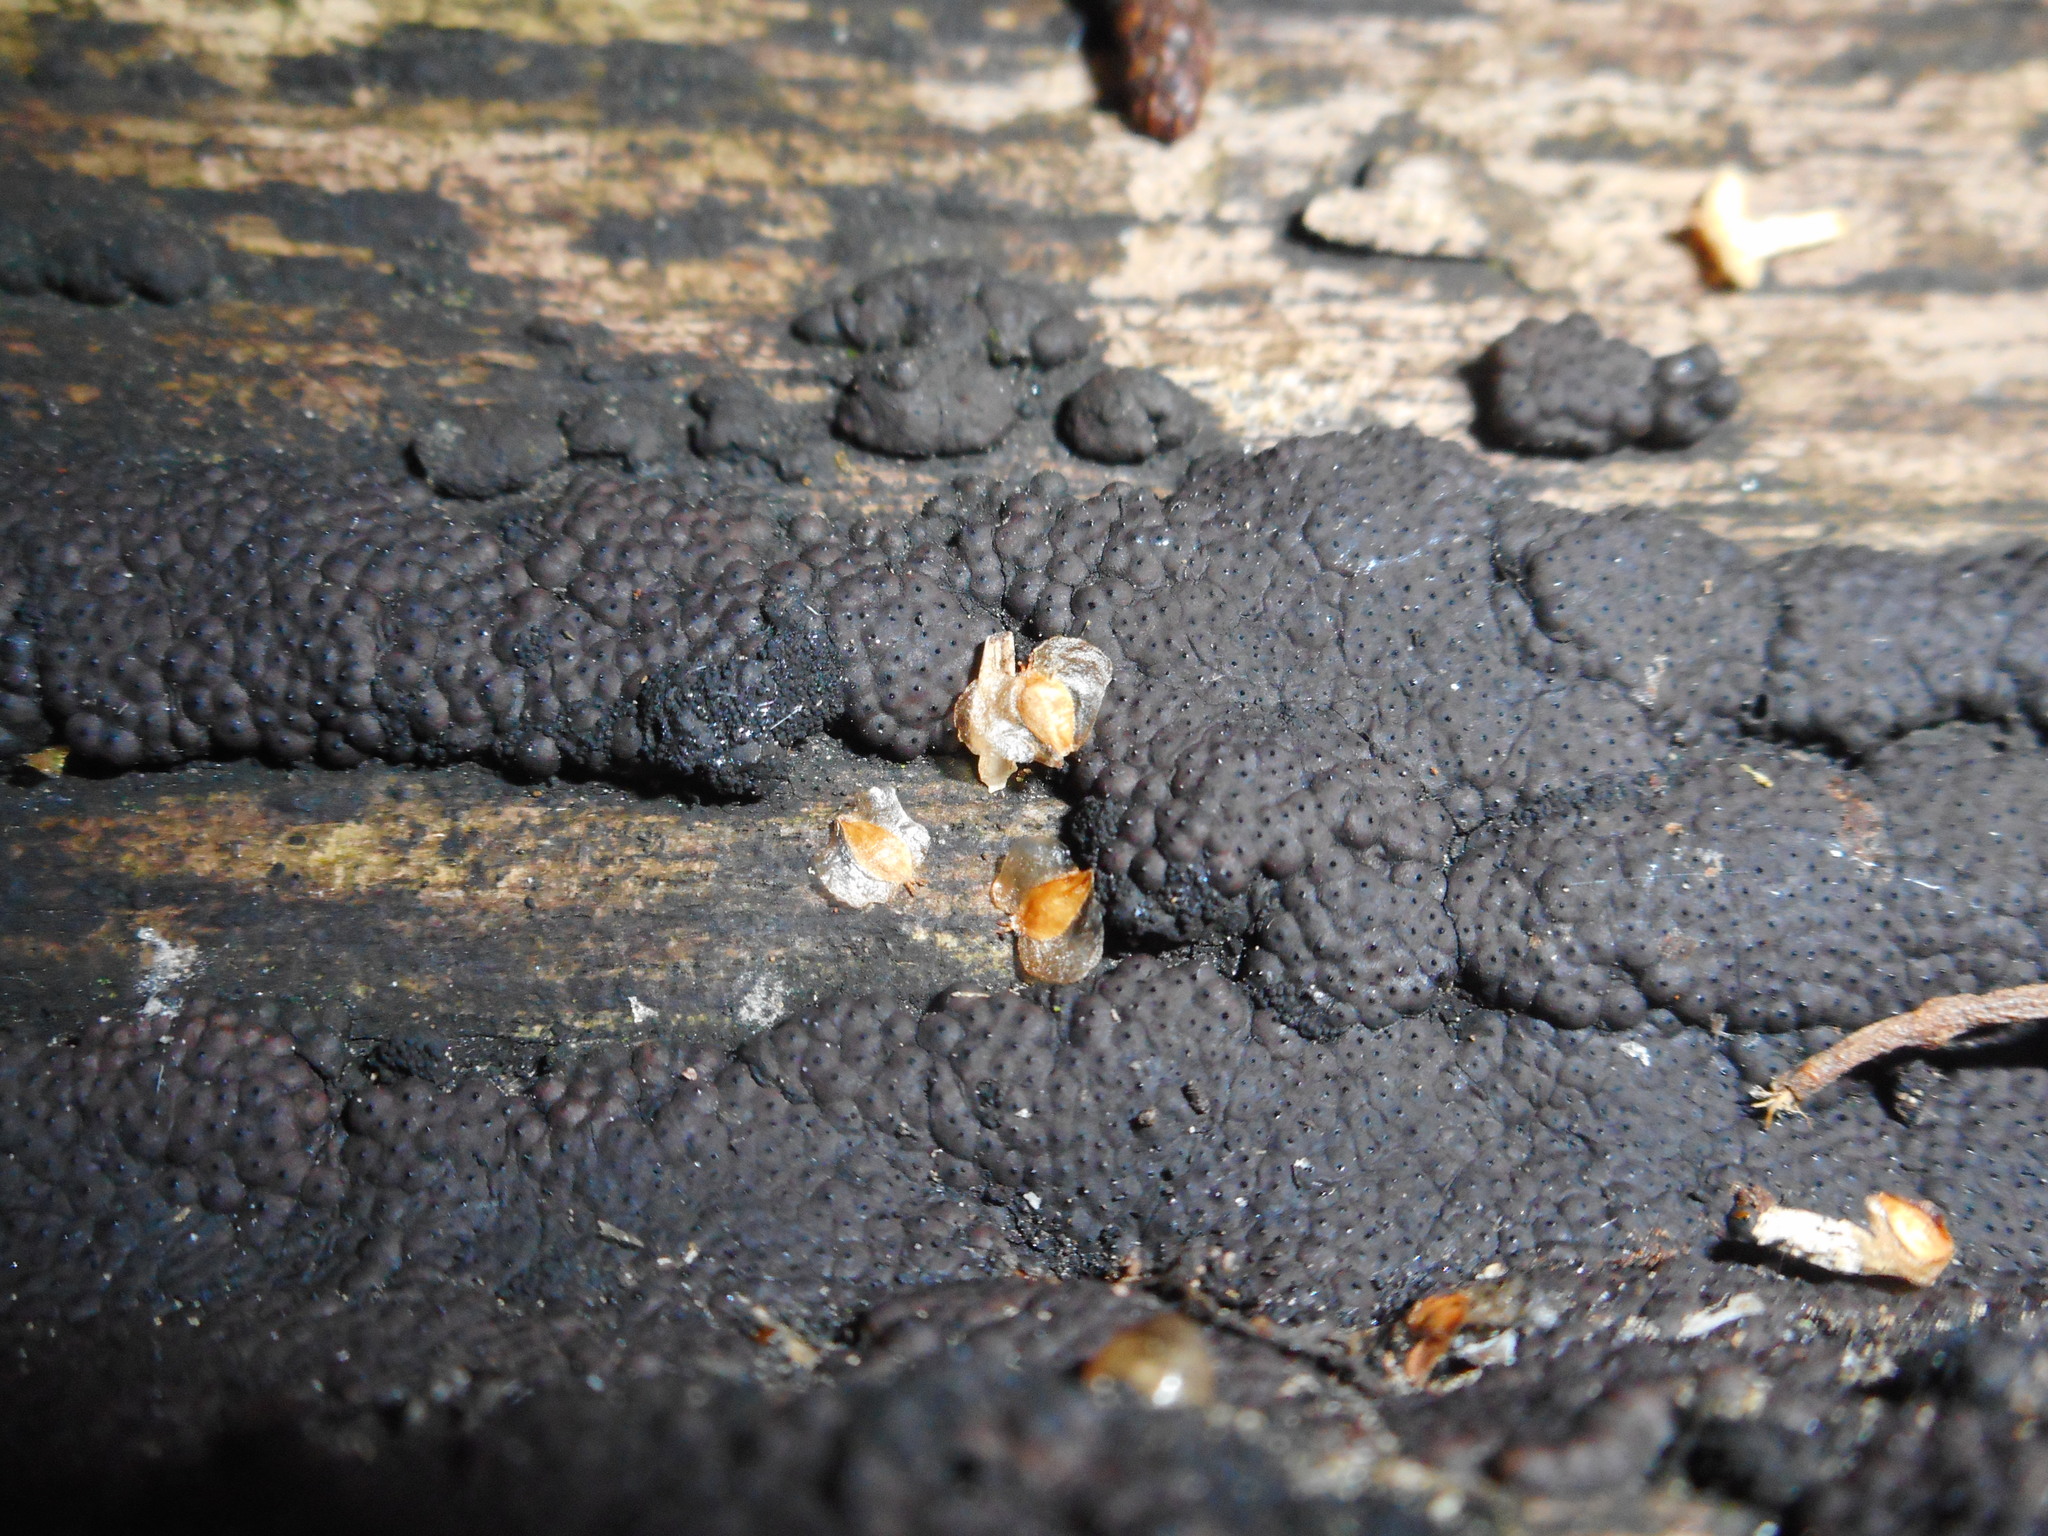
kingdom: Fungi
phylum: Ascomycota
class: Sordariomycetes
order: Xylariales
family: Hypoxylaceae
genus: Jackrogersella
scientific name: Jackrogersella multiformis
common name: Birch woodwart
